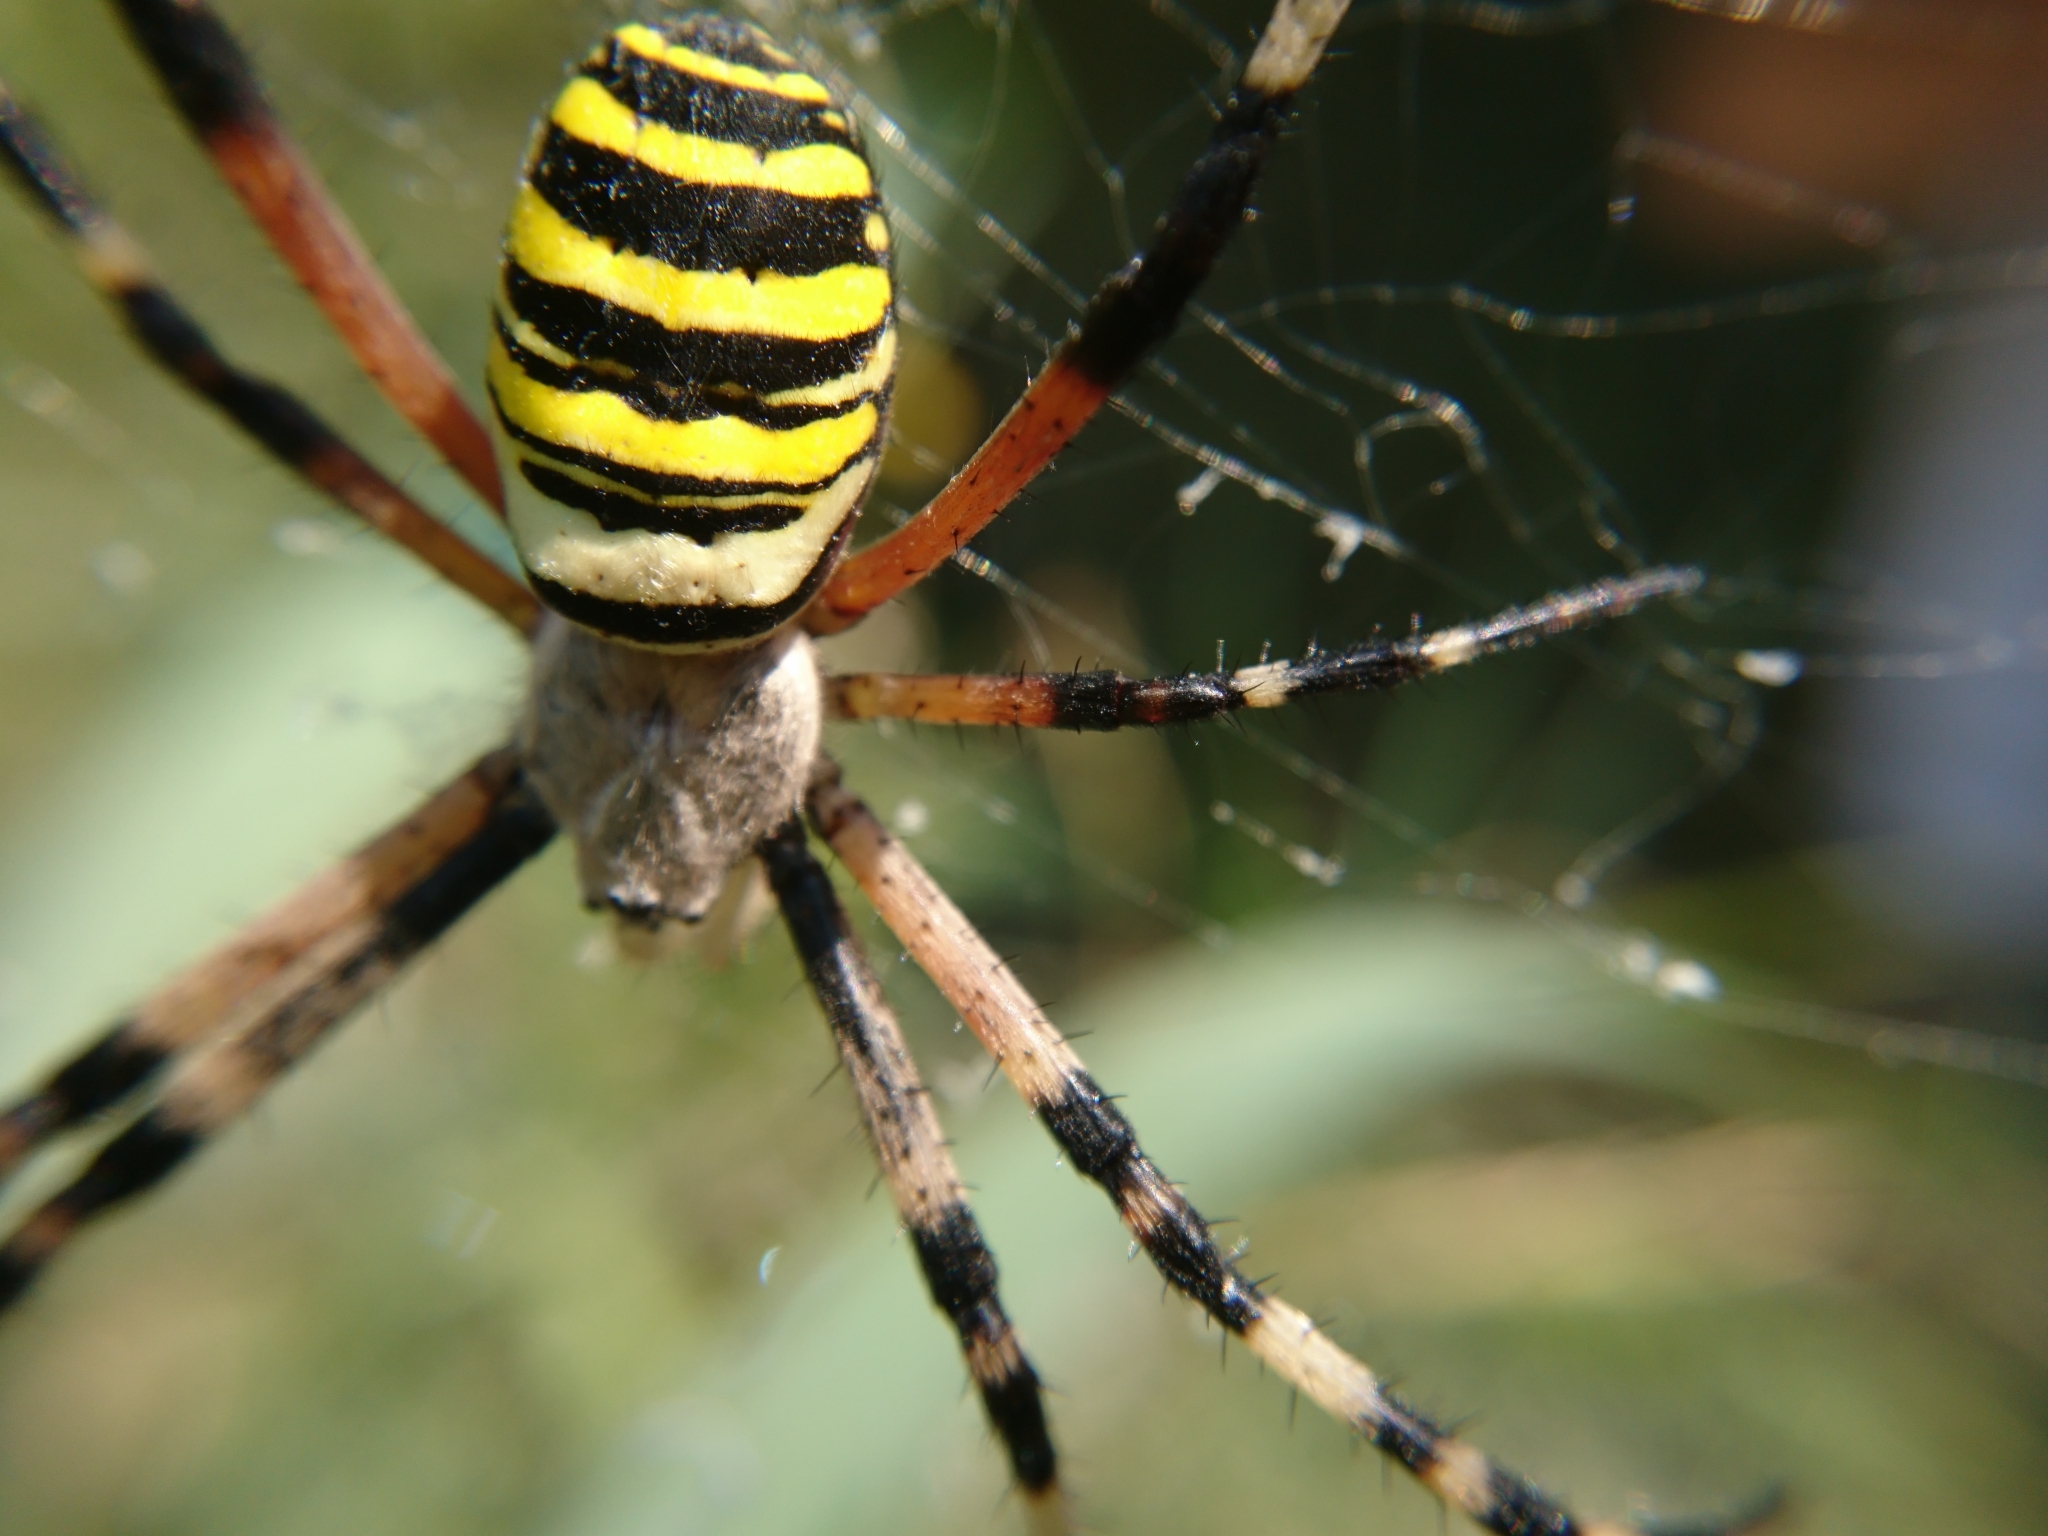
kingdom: Animalia
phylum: Arthropoda
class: Arachnida
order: Araneae
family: Araneidae
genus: Argiope
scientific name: Argiope bruennichi
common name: Wasp spider
